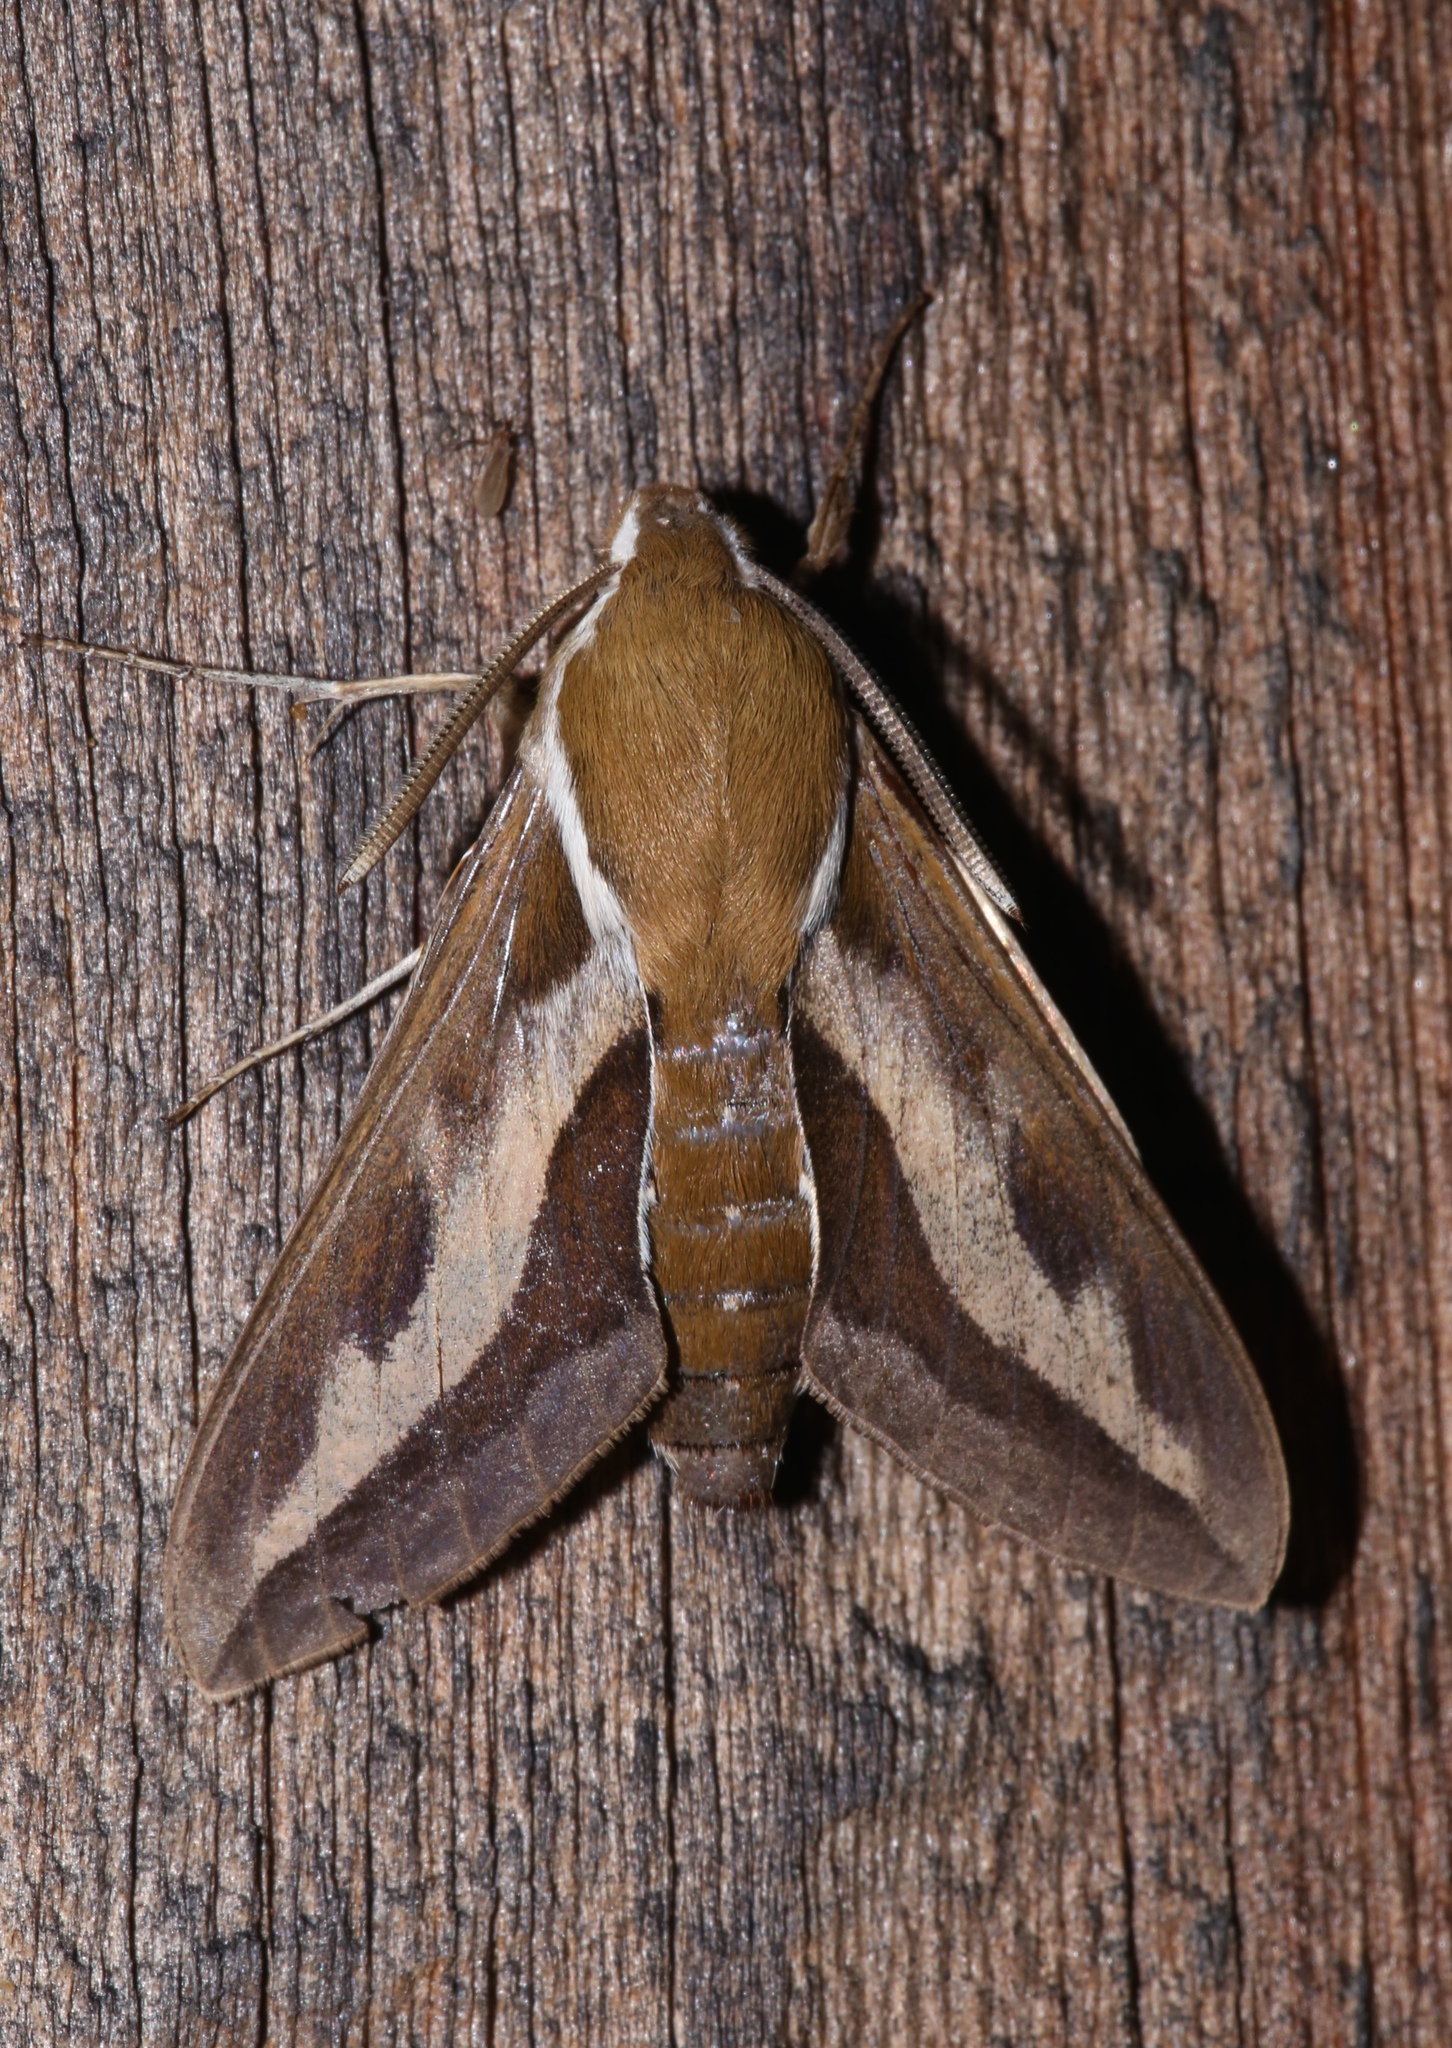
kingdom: Animalia
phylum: Arthropoda
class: Insecta
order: Lepidoptera
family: Sphingidae
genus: Hyles
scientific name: Hyles gallii
